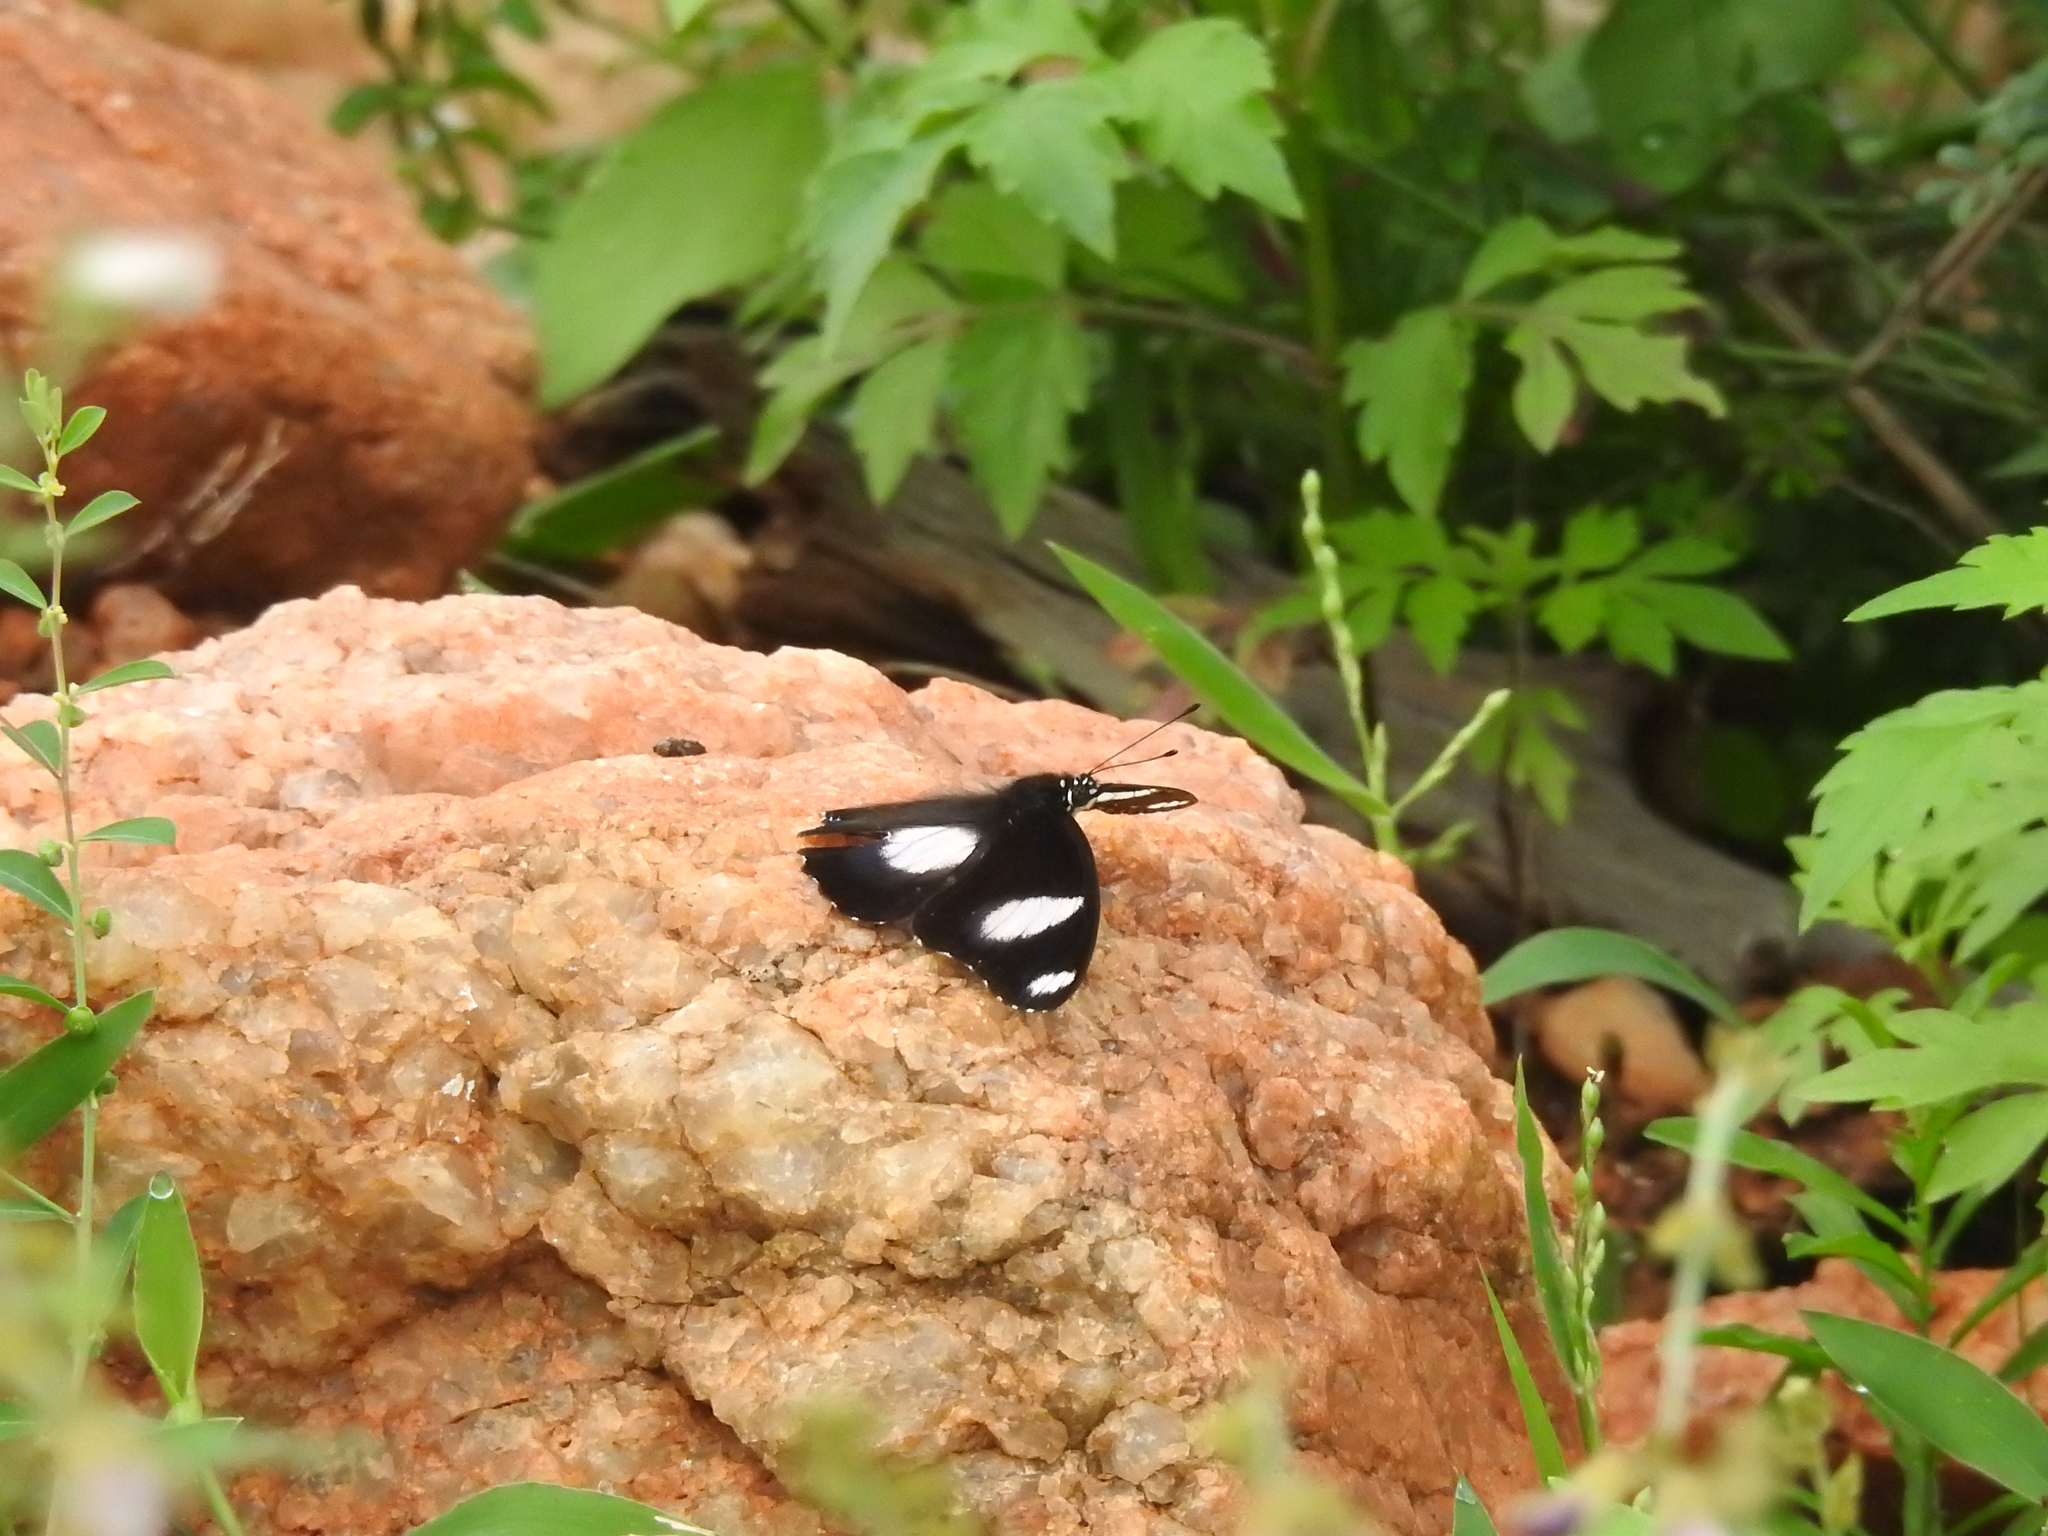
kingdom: Animalia
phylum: Arthropoda
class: Insecta
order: Lepidoptera
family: Nymphalidae
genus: Hypolimnas
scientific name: Hypolimnas misippus
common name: False plain tiger
